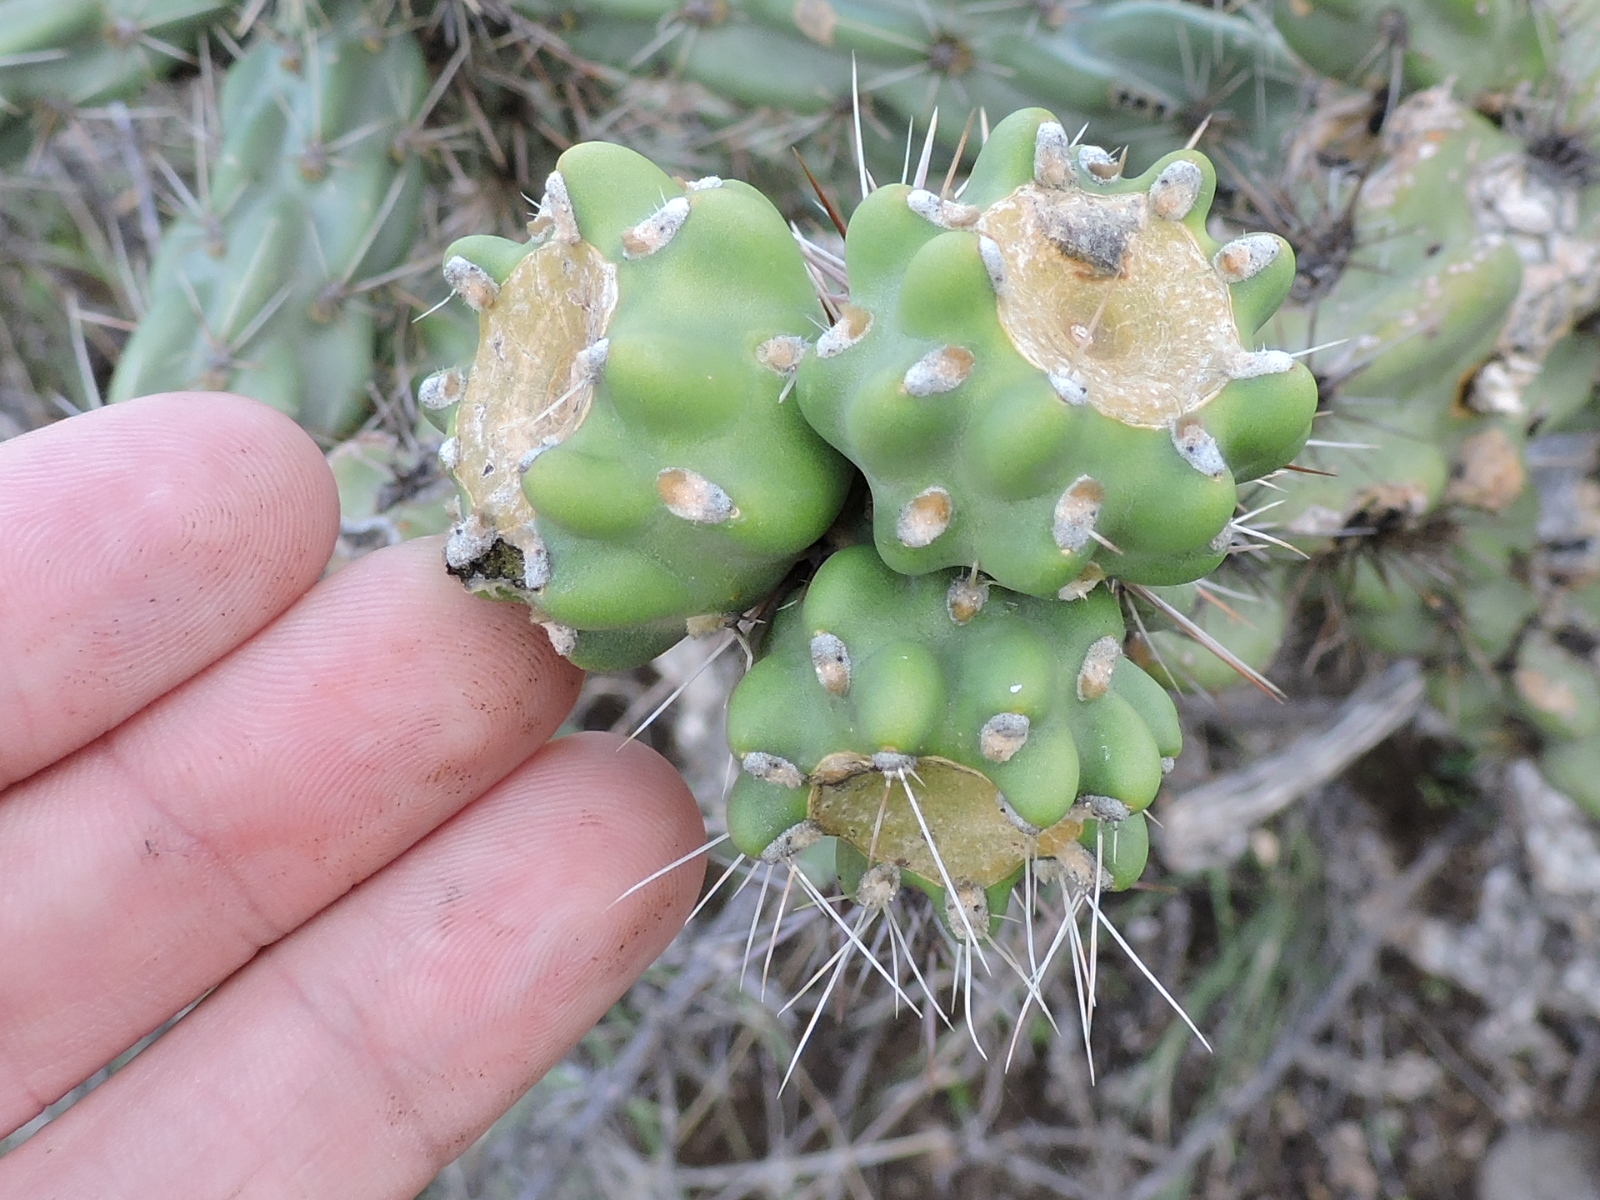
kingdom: Plantae
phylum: Tracheophyta
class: Magnoliopsida
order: Caryophyllales
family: Cactaceae
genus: Cylindropuntia
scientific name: Cylindropuntia imbricata
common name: Candelabrum cactus
